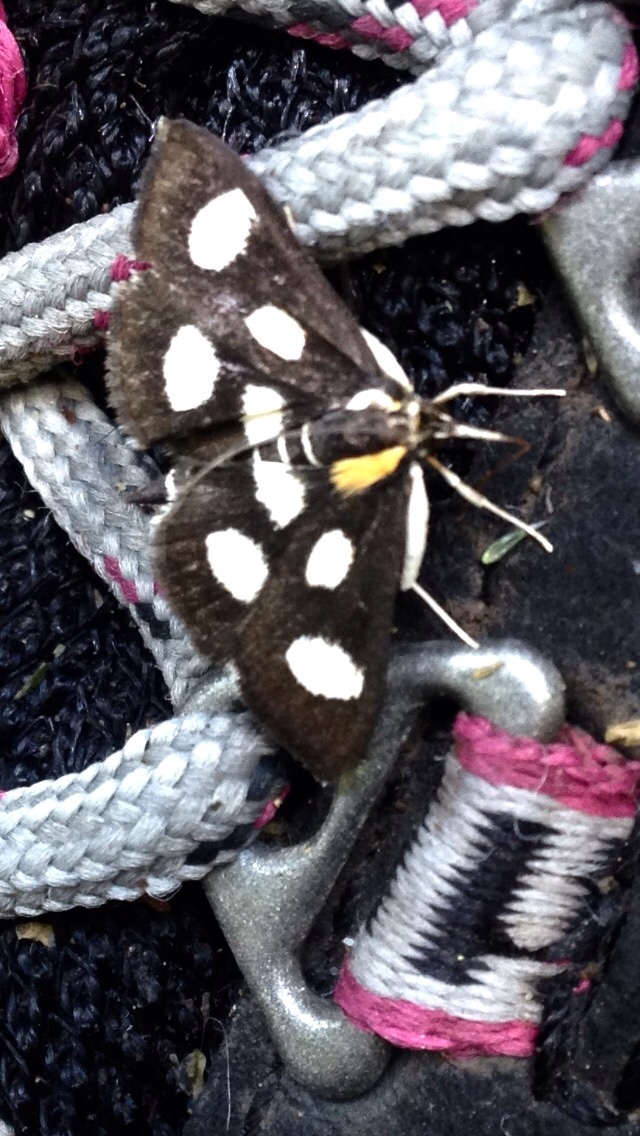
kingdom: Animalia
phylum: Arthropoda
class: Insecta
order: Lepidoptera
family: Crambidae
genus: Anania
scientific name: Anania funebris
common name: White-spotted sable moth
